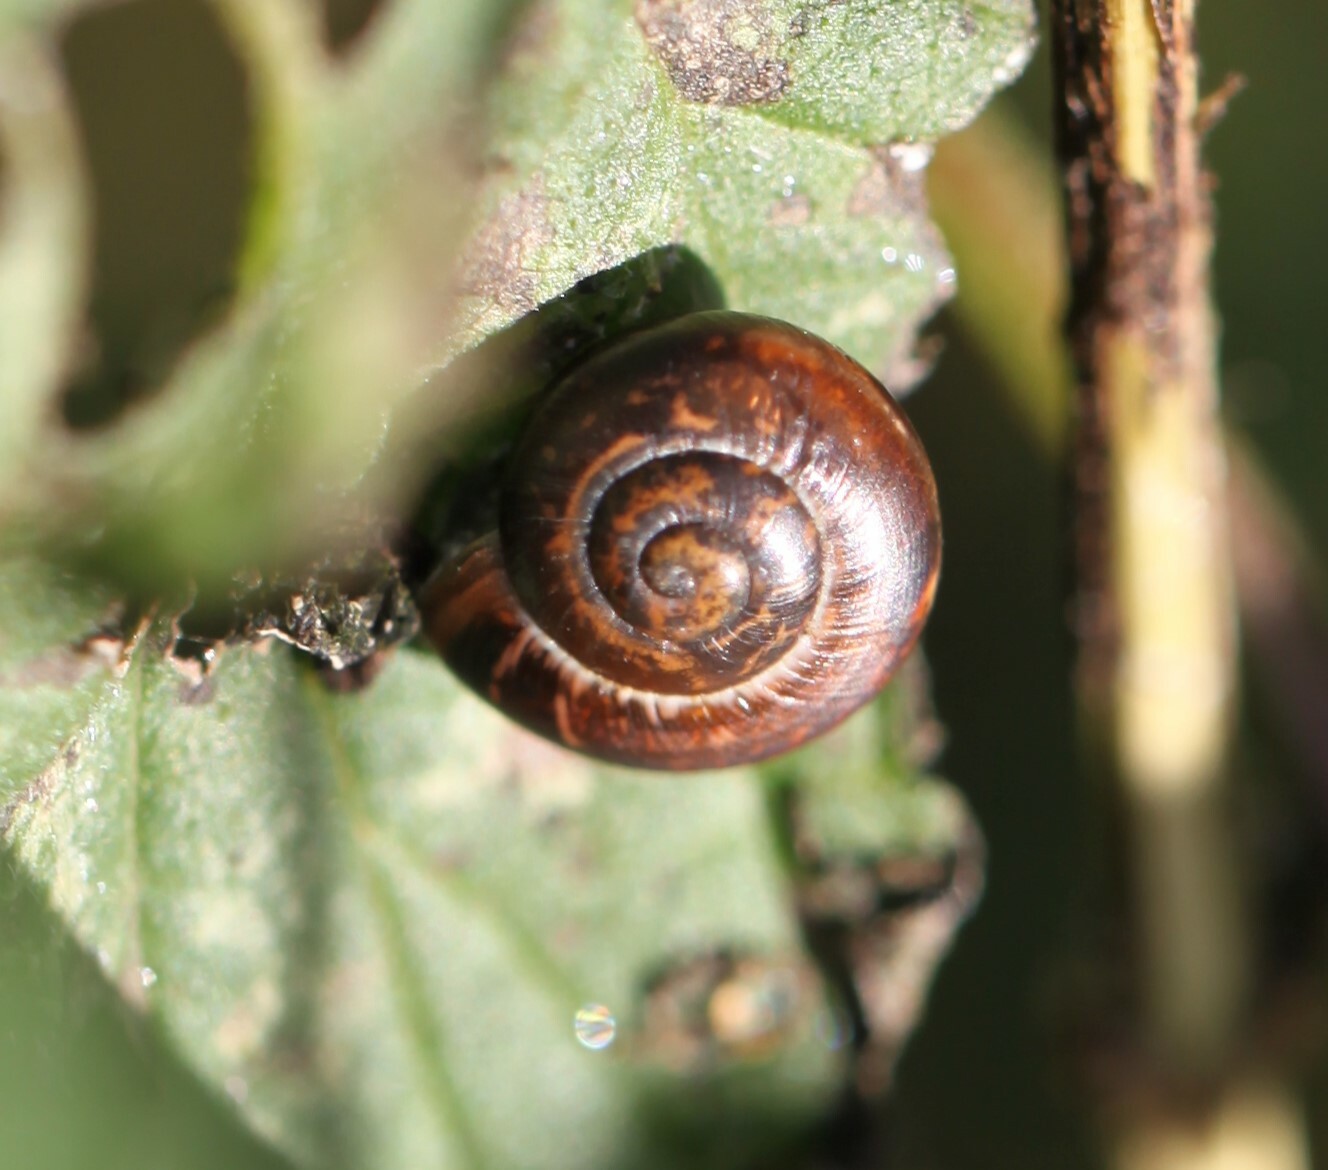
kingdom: Animalia
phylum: Mollusca
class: Gastropoda
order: Stylommatophora
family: Helicidae
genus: Arianta
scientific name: Arianta arbustorum
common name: Copse snail
